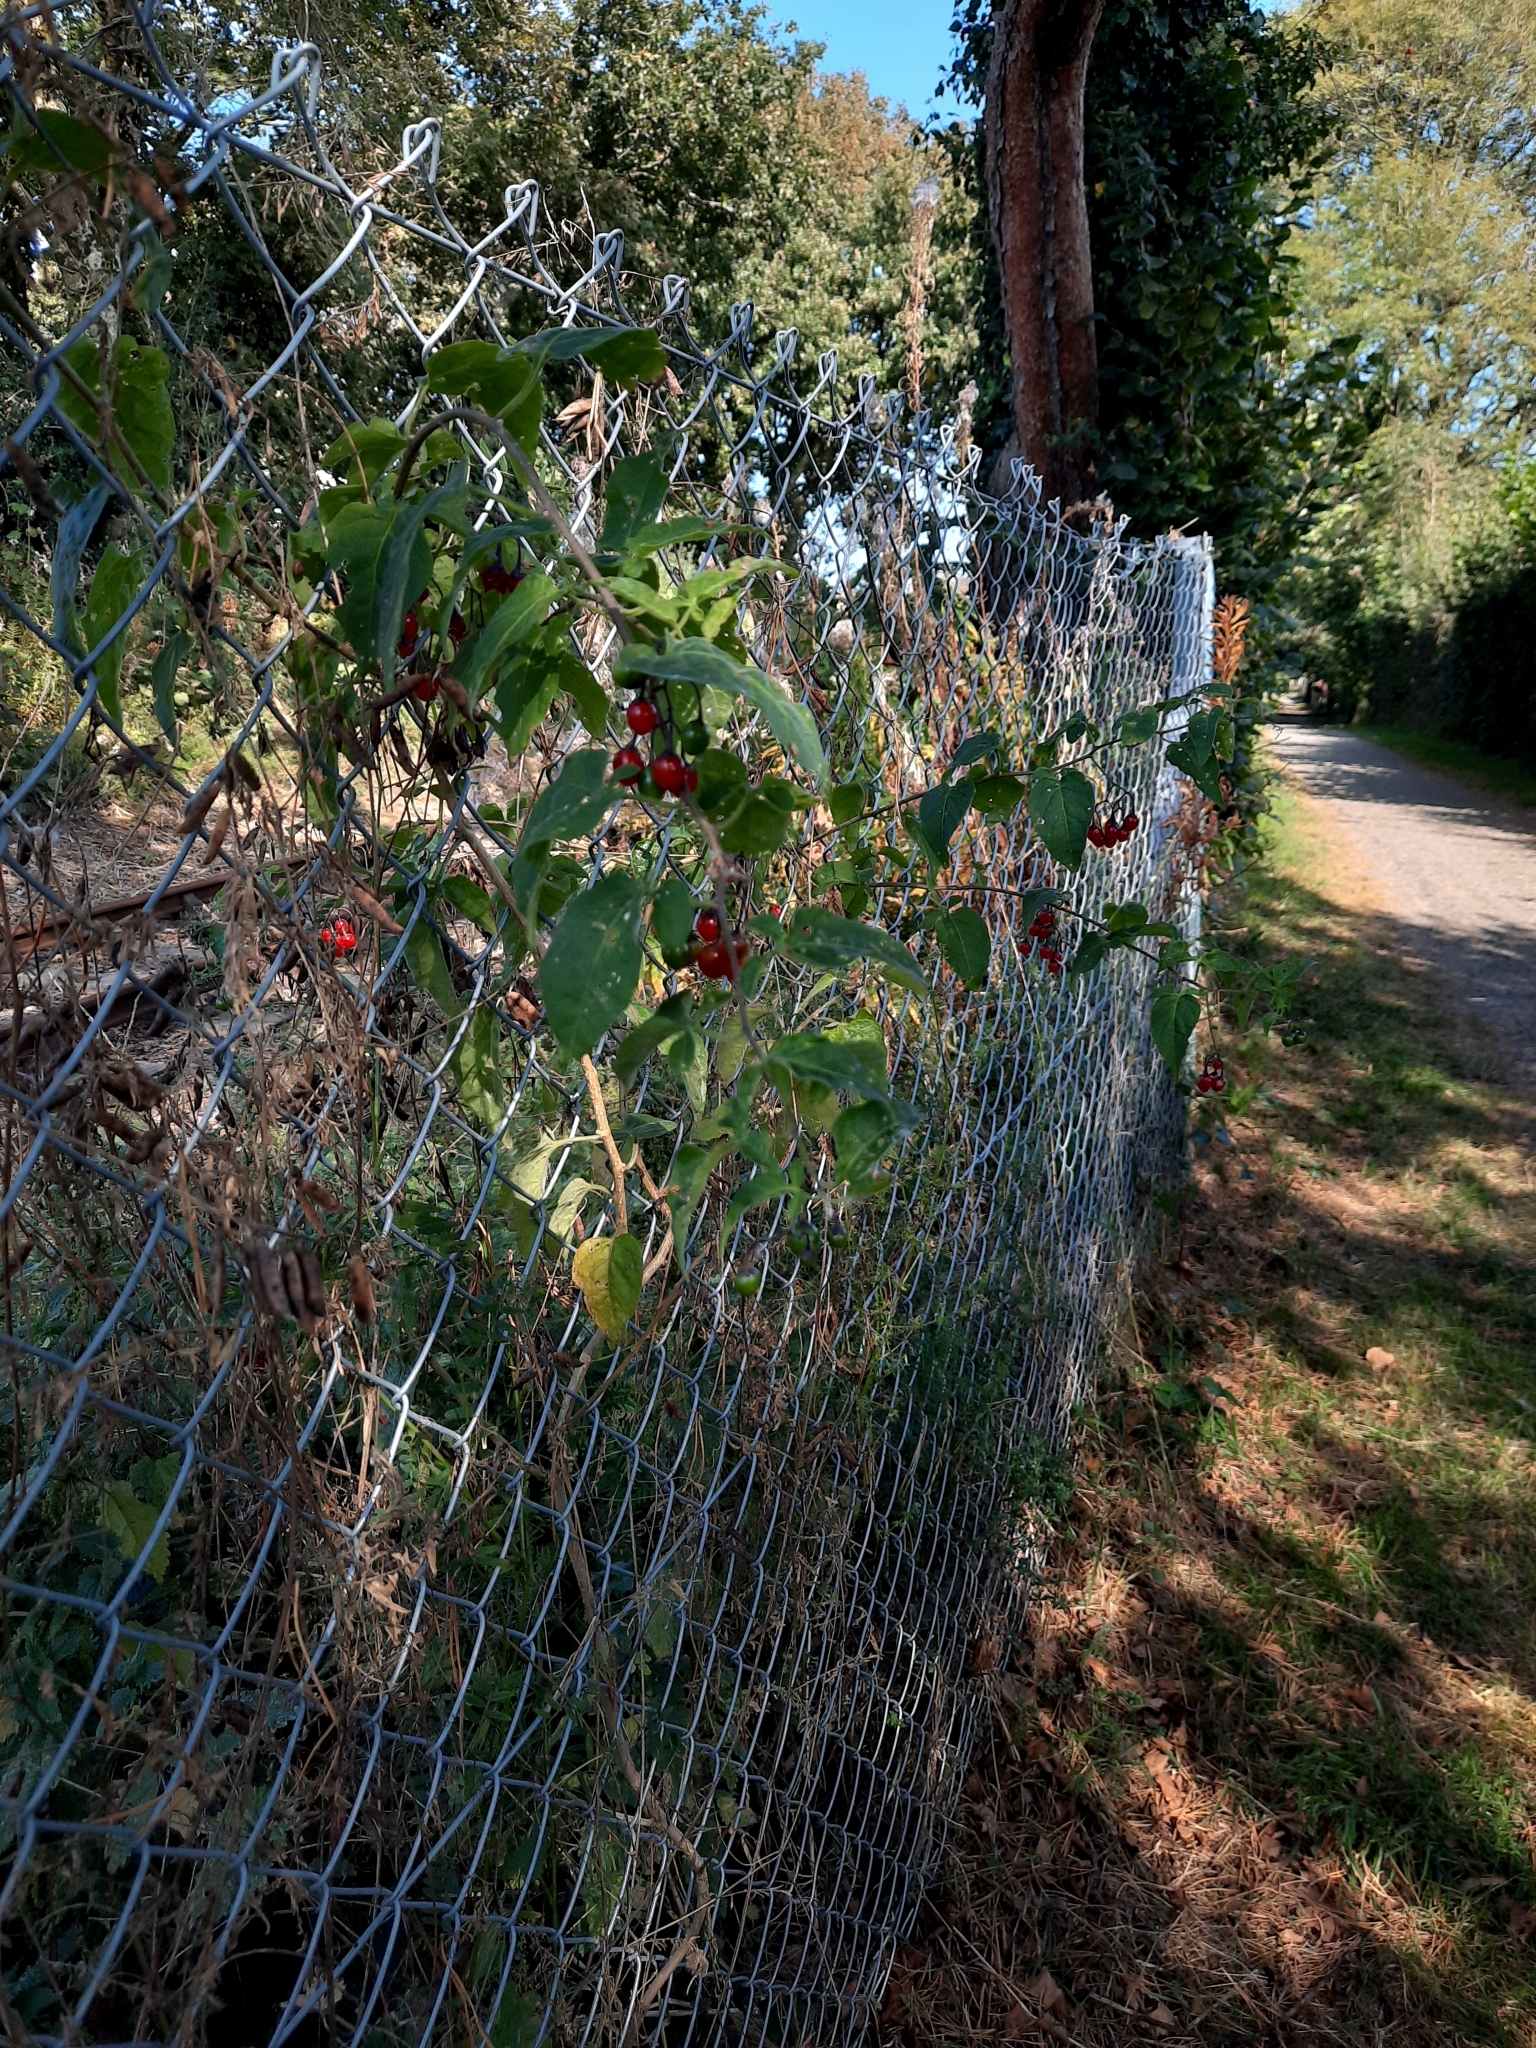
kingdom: Plantae
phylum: Tracheophyta
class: Magnoliopsida
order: Solanales
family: Solanaceae
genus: Solanum
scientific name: Solanum dulcamara
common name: Climbing nightshade
